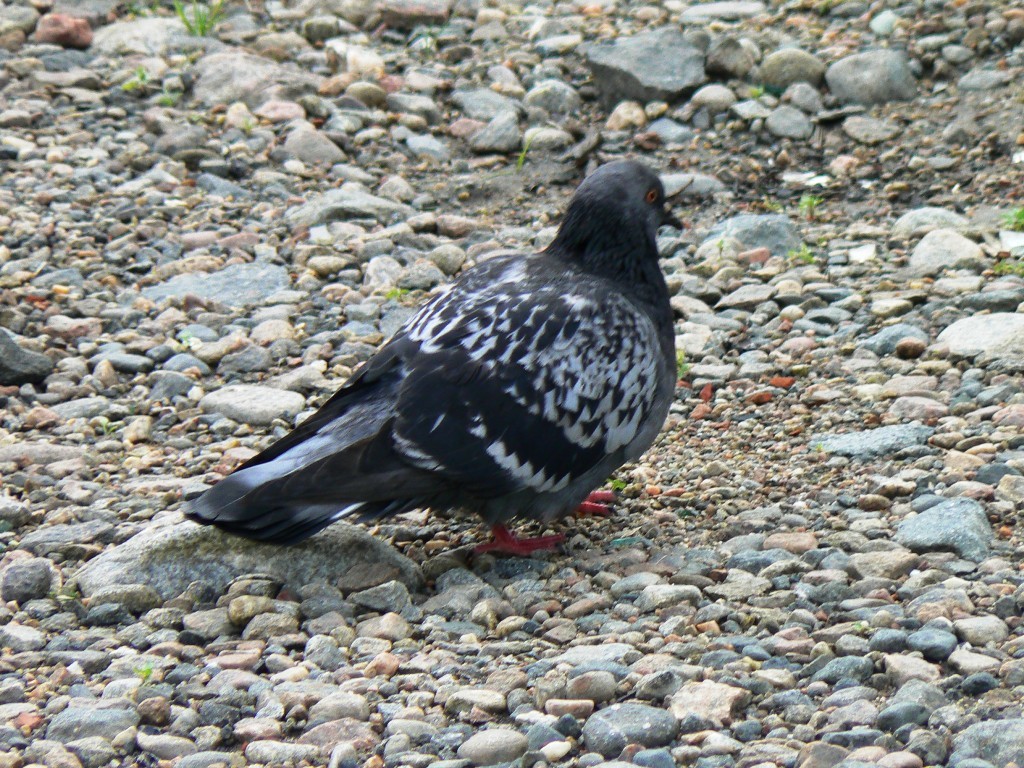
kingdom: Animalia
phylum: Chordata
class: Aves
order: Columbiformes
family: Columbidae
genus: Columba
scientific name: Columba livia
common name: Rock pigeon
